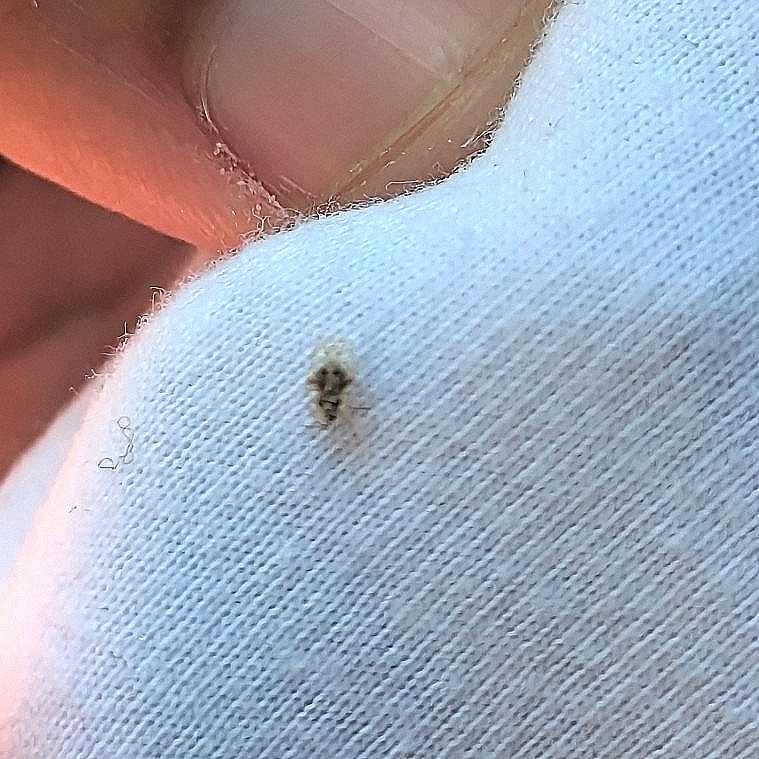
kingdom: Animalia
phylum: Arthropoda
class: Insecta
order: Hemiptera
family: Tingidae
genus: Corythucha
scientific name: Corythucha arcuata
